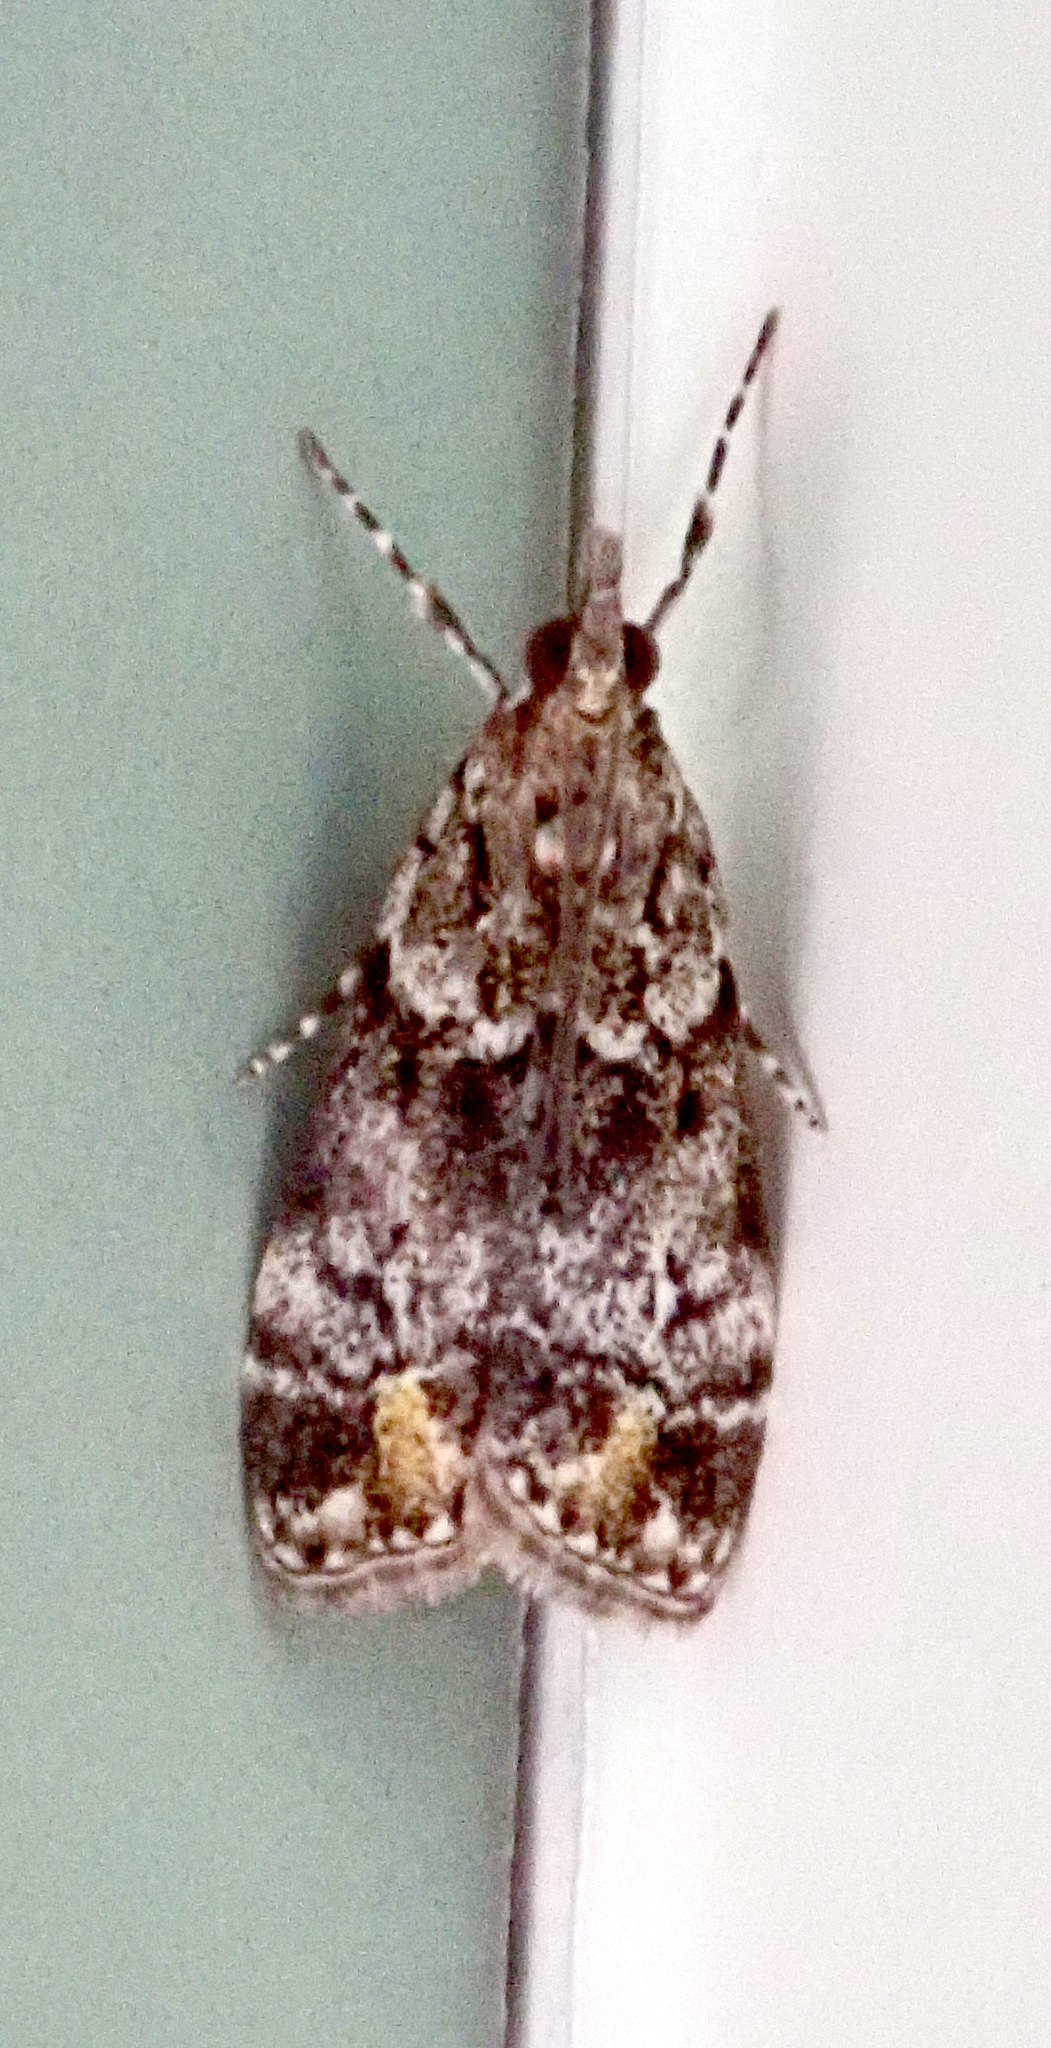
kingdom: Animalia
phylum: Arthropoda
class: Insecta
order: Lepidoptera
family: Crambidae
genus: Eudonia
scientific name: Eudonia minualis
